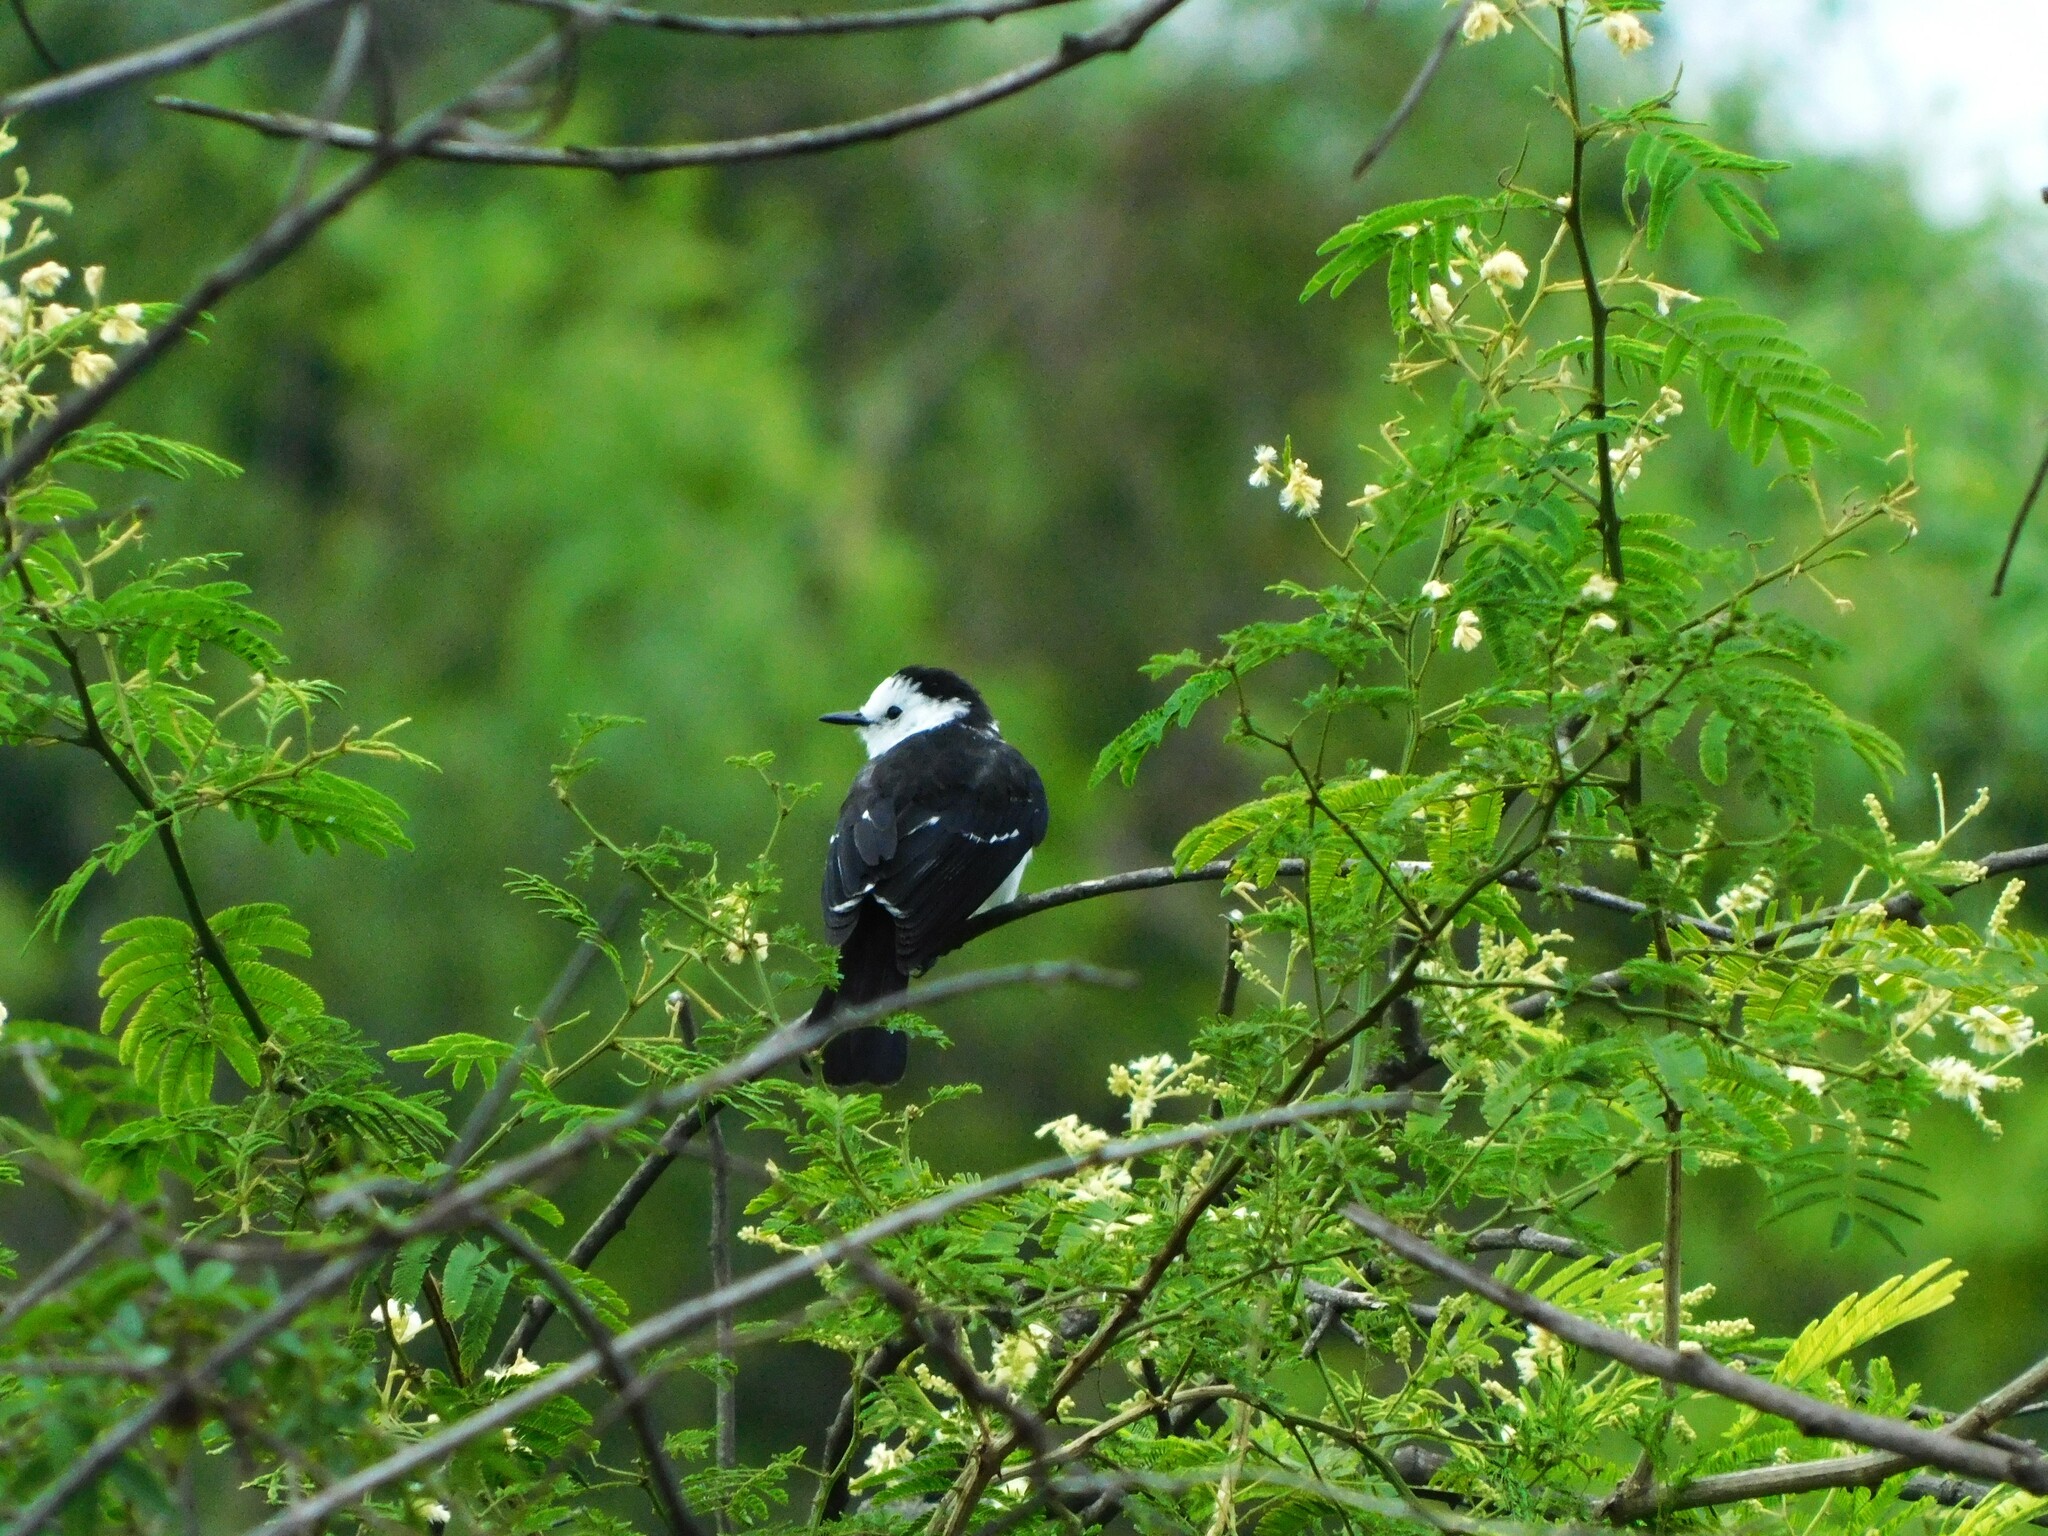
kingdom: Animalia
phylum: Chordata
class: Aves
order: Passeriformes
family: Tyrannidae
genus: Fluvicola
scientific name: Fluvicola pica
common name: Pied water-tyrant
